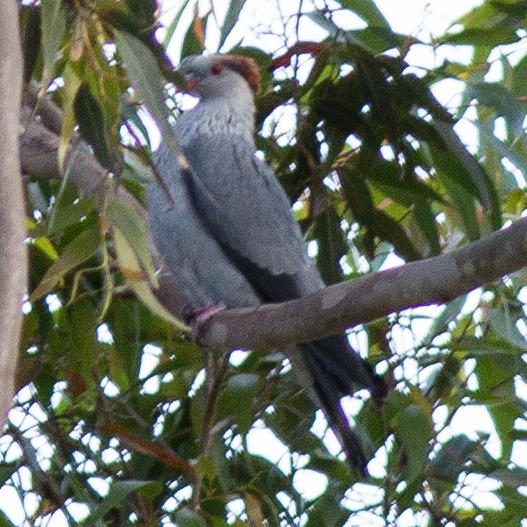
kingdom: Animalia
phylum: Chordata
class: Aves
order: Columbiformes
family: Columbidae
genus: Lopholaimus
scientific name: Lopholaimus antarcticus
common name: Topknot pigeon
